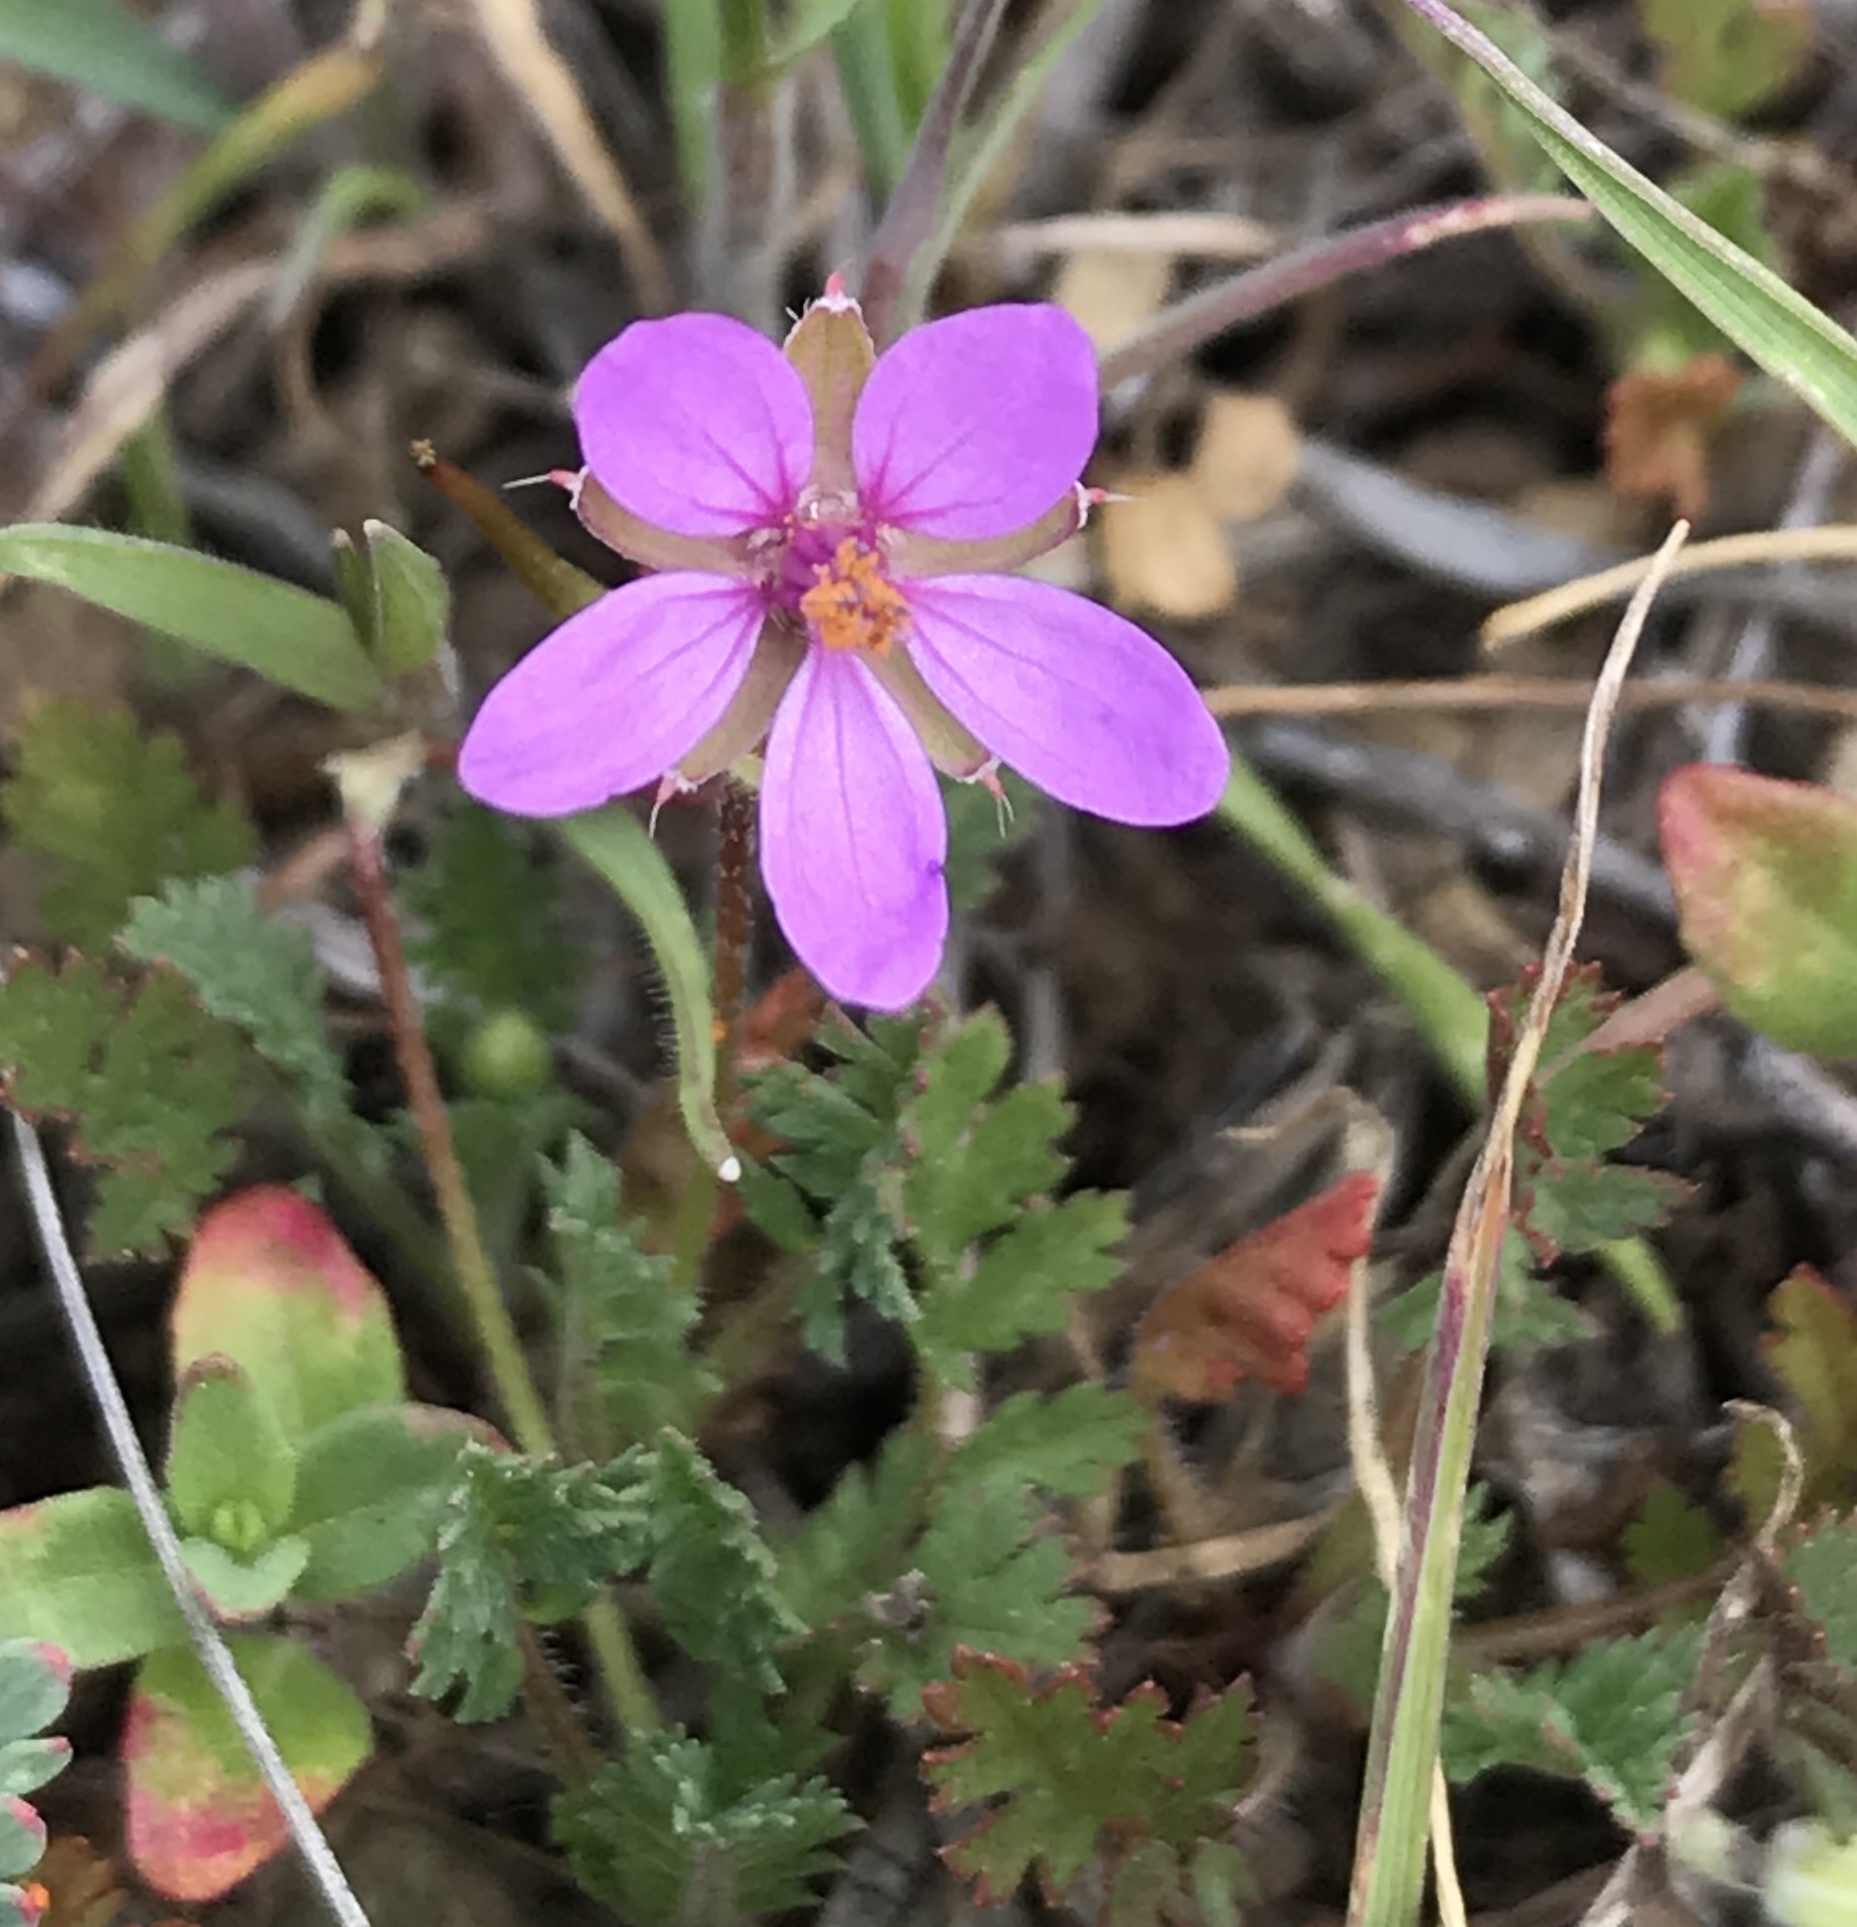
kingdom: Plantae
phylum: Tracheophyta
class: Magnoliopsida
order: Geraniales
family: Geraniaceae
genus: Erodium
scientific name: Erodium cicutarium
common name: Common stork's-bill
